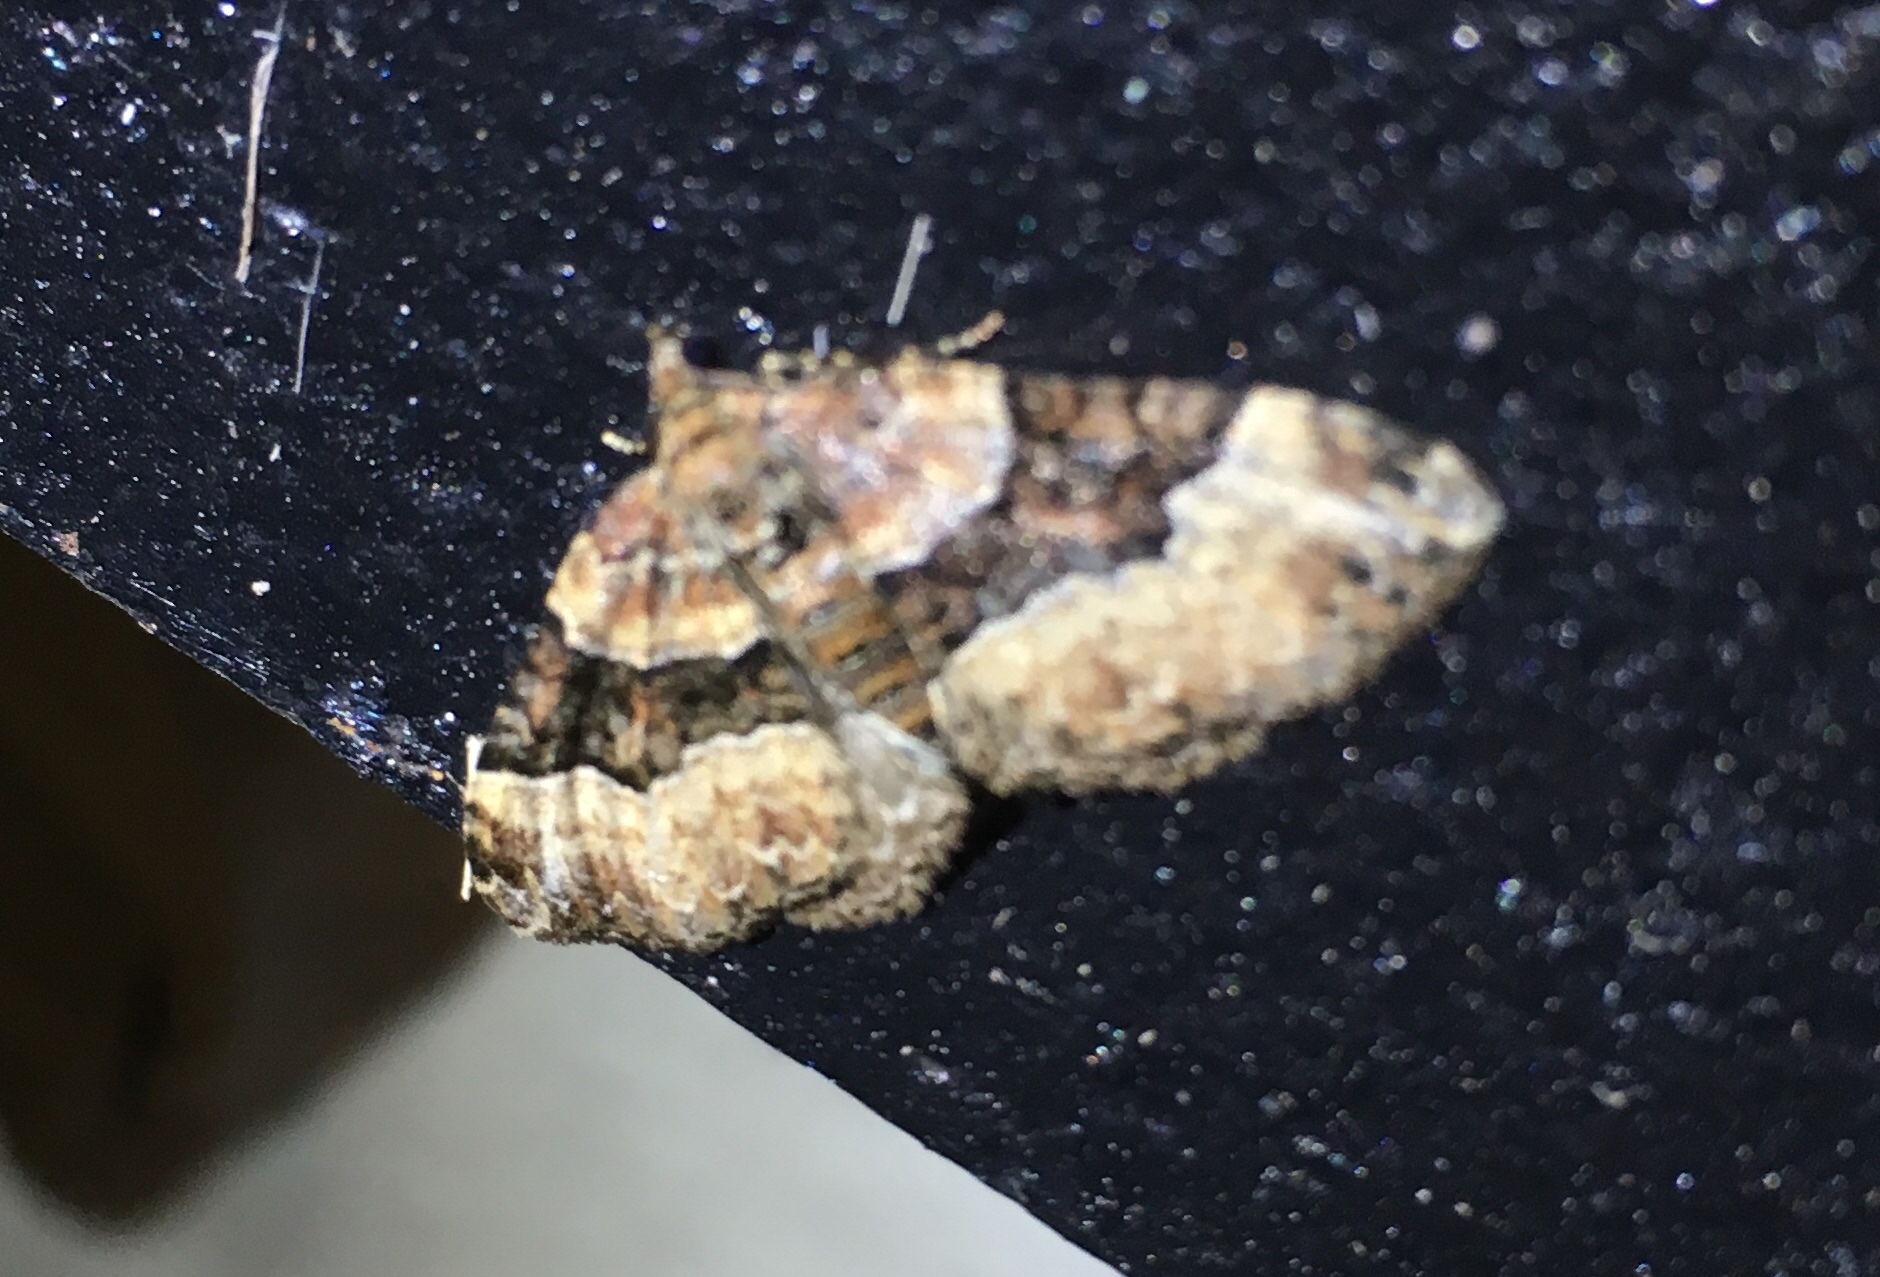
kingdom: Animalia
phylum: Arthropoda
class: Insecta
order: Lepidoptera
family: Geometridae
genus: Xanthorhoe
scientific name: Xanthorhoe lacustrata
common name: Toothed brown carpet
